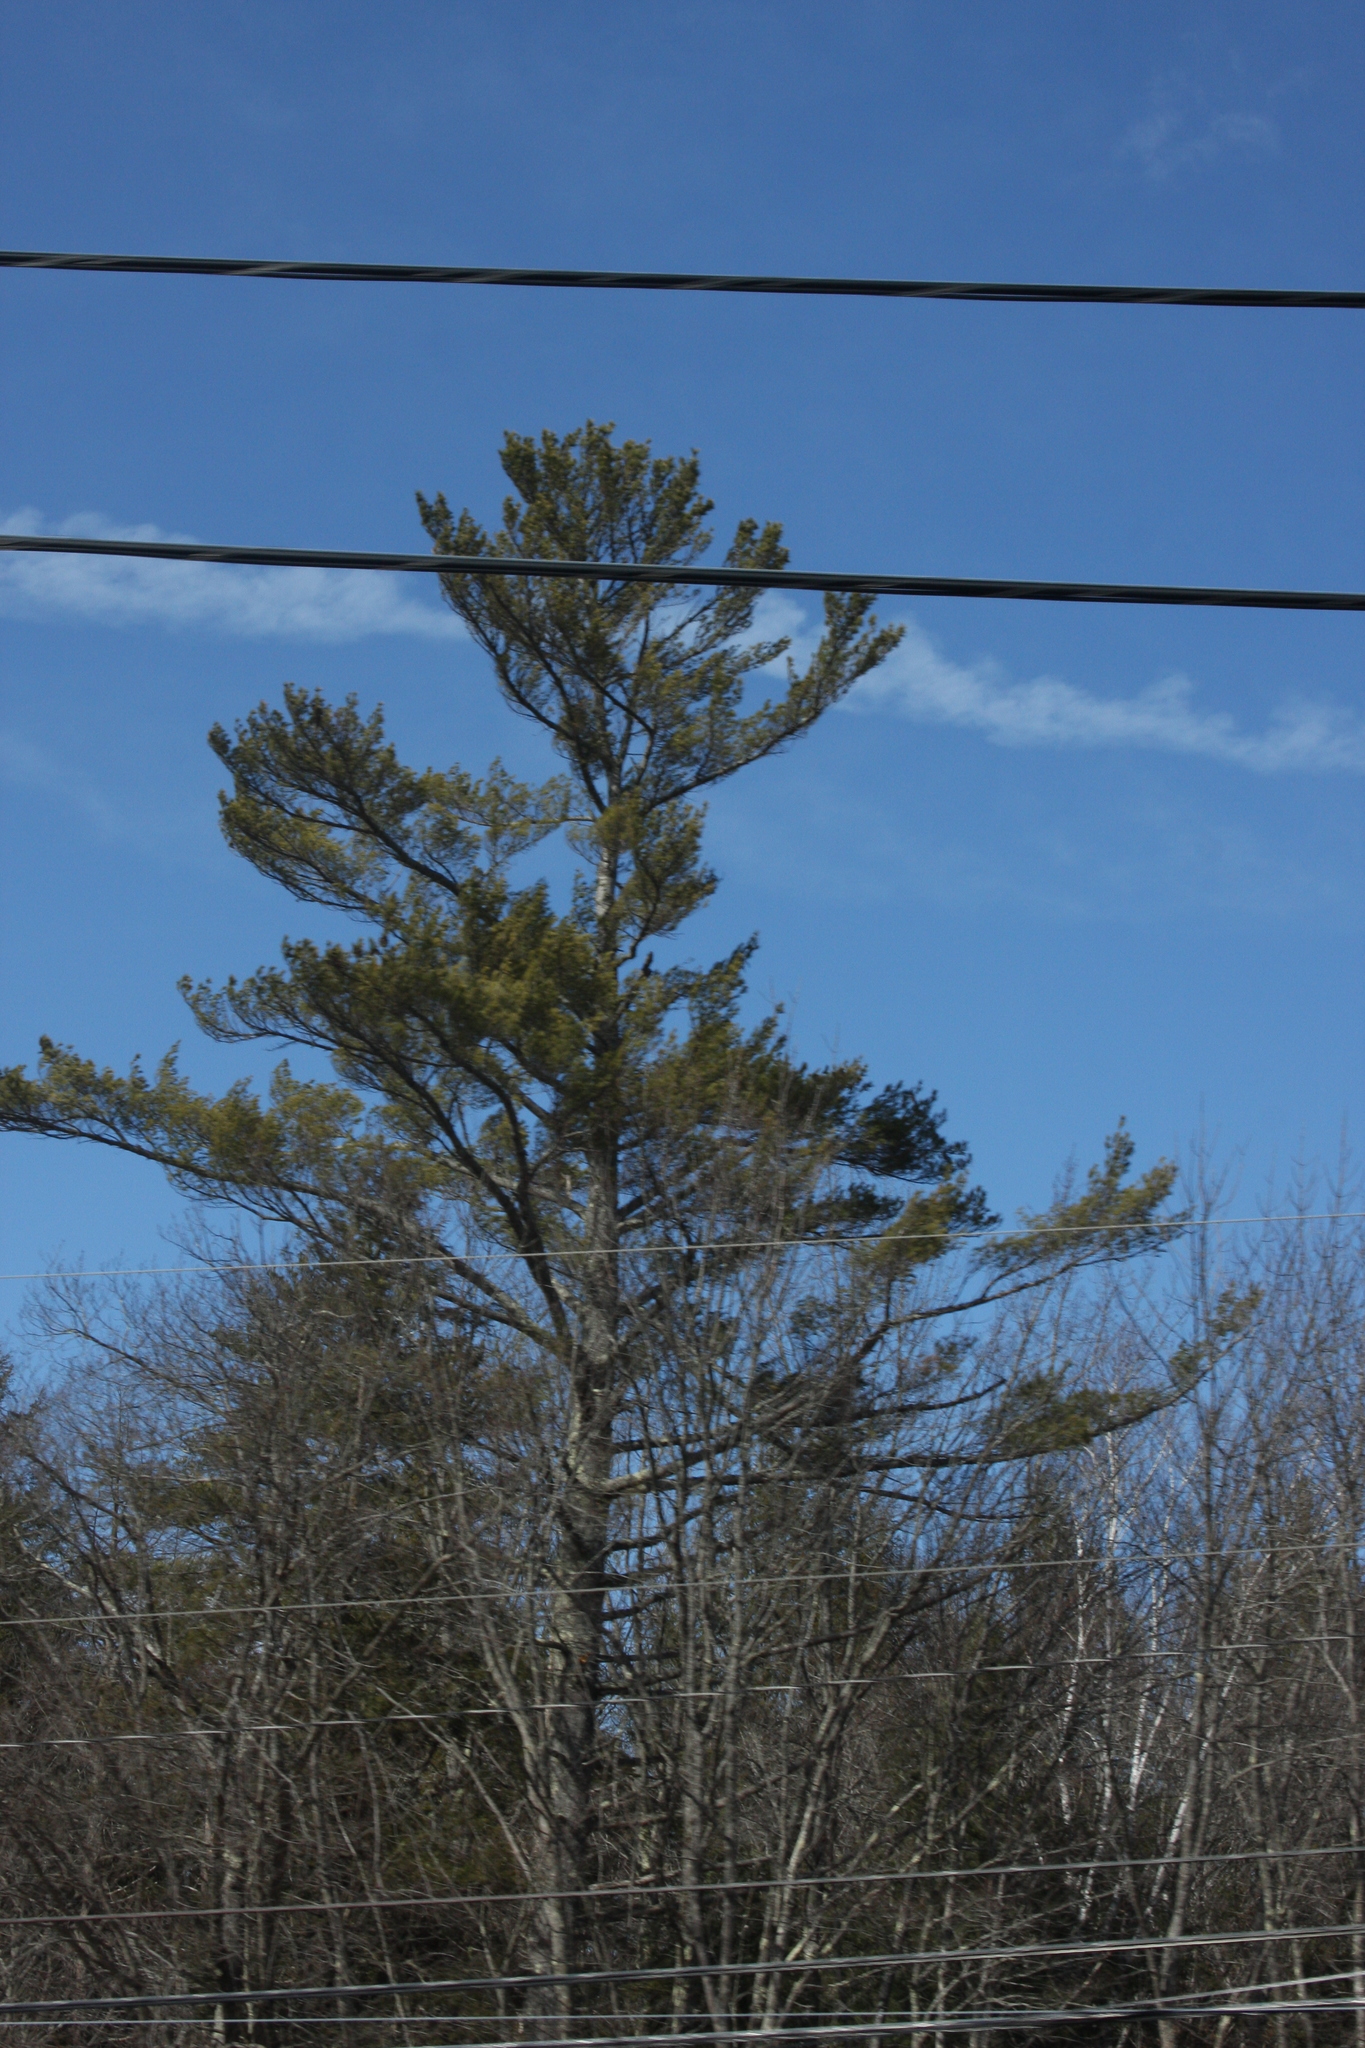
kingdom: Plantae
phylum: Tracheophyta
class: Pinopsida
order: Pinales
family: Pinaceae
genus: Pinus
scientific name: Pinus strobus
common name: Weymouth pine
